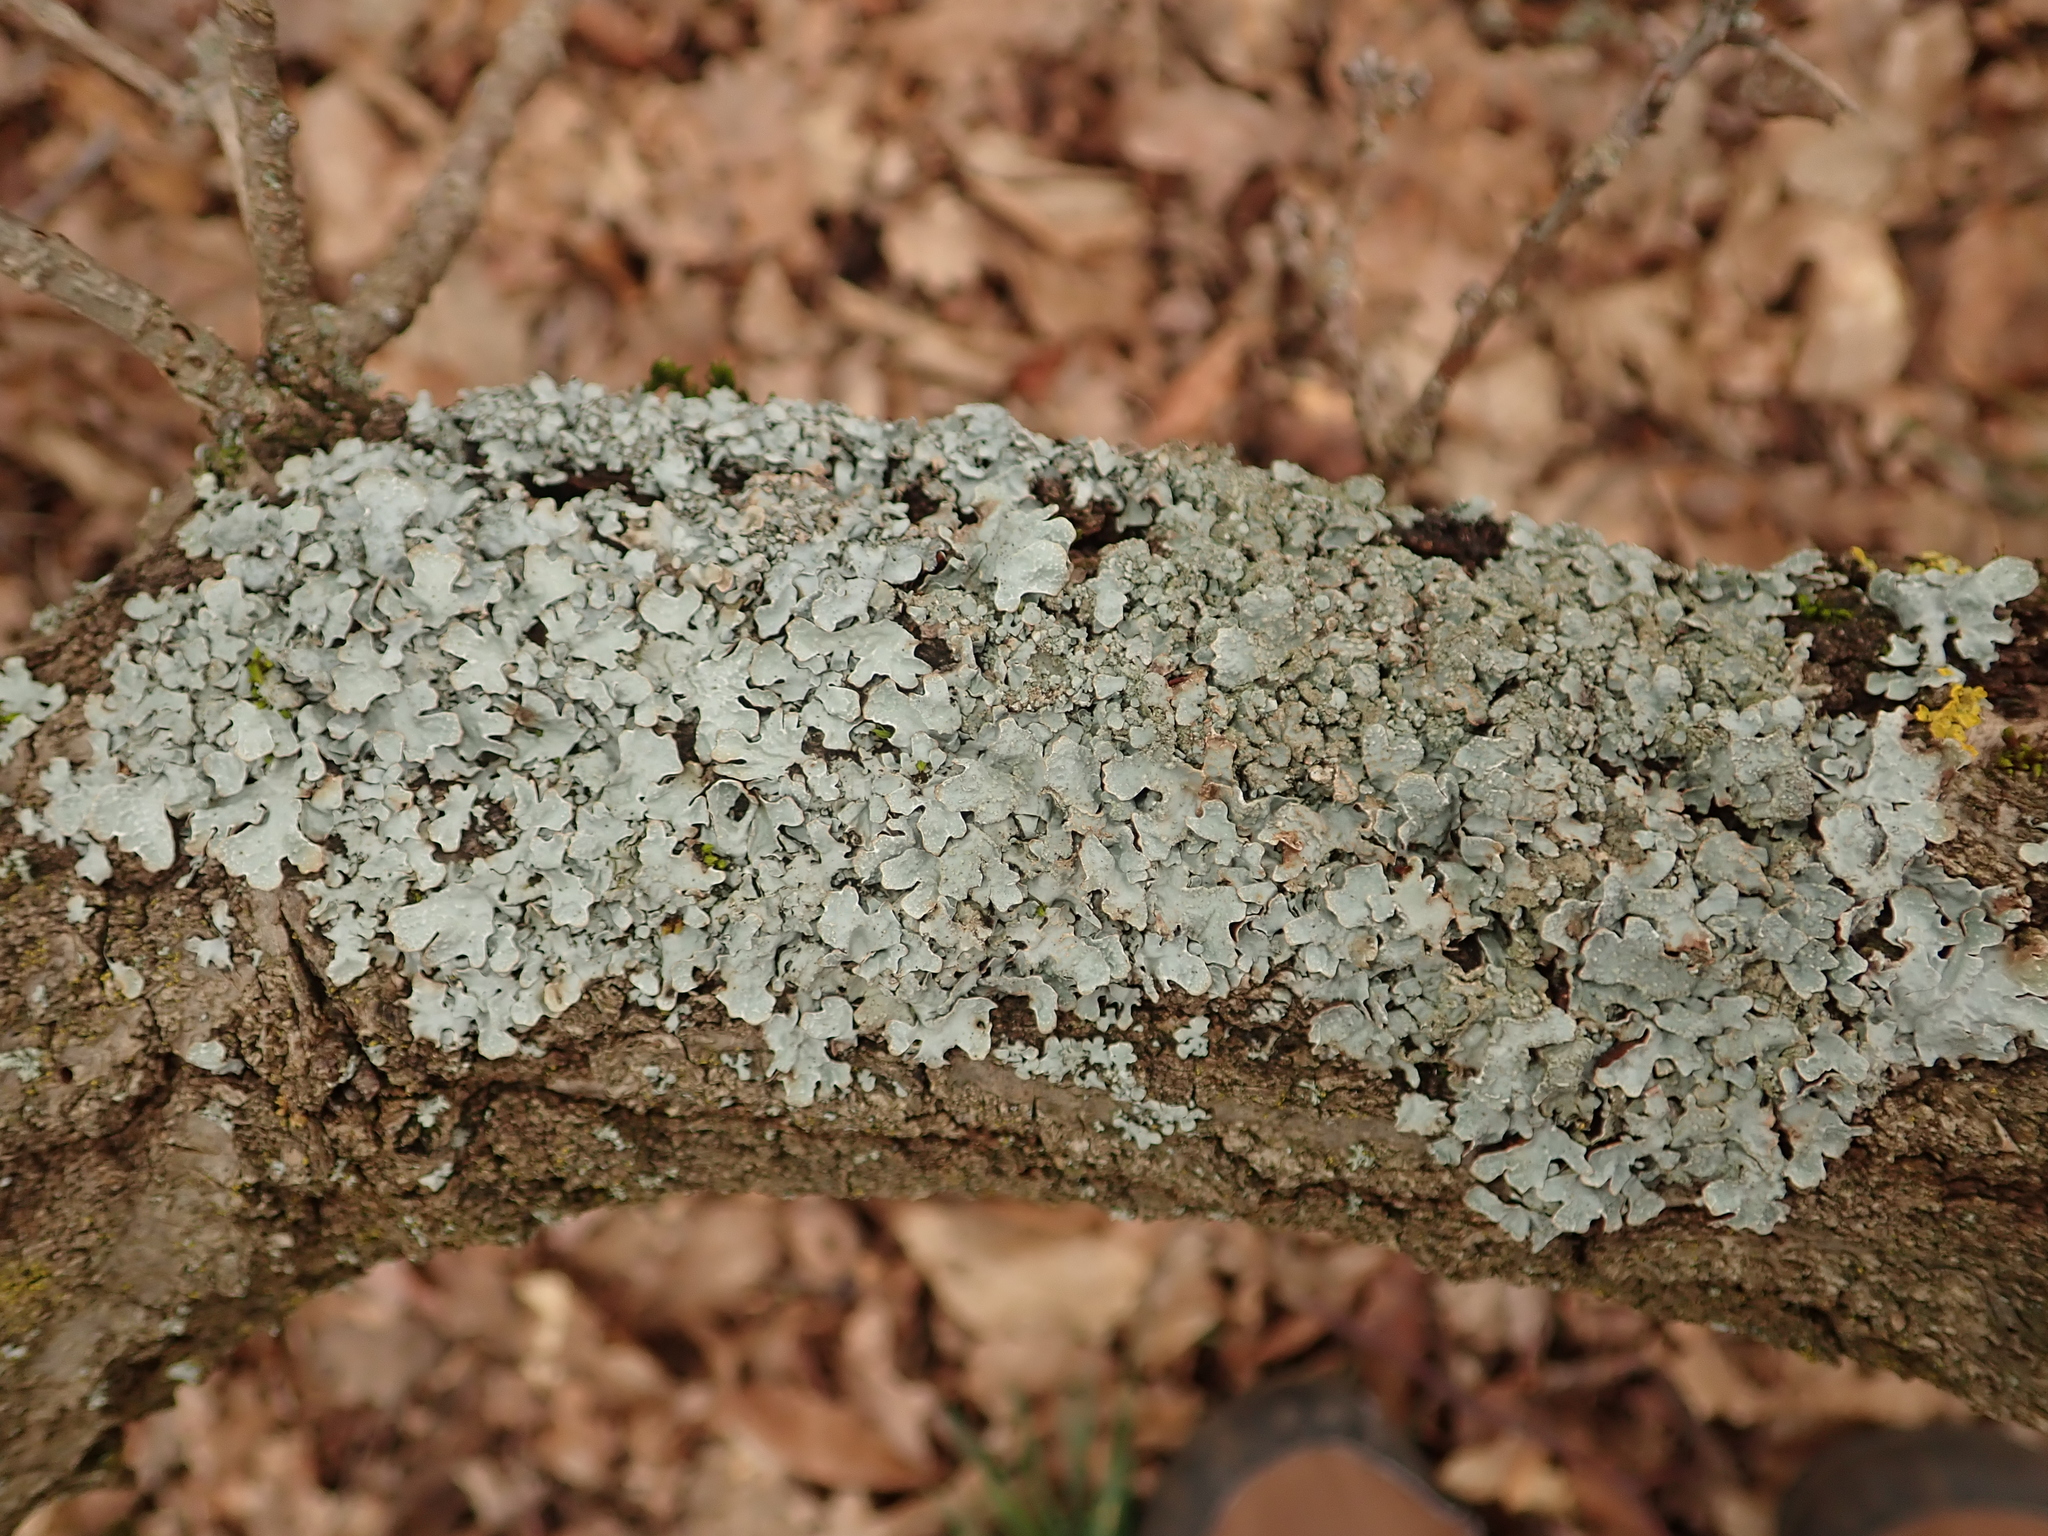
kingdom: Fungi
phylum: Ascomycota
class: Lecanoromycetes
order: Lecanorales
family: Parmeliaceae
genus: Parmelia
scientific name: Parmelia sulcata
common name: Netted shield lichen
